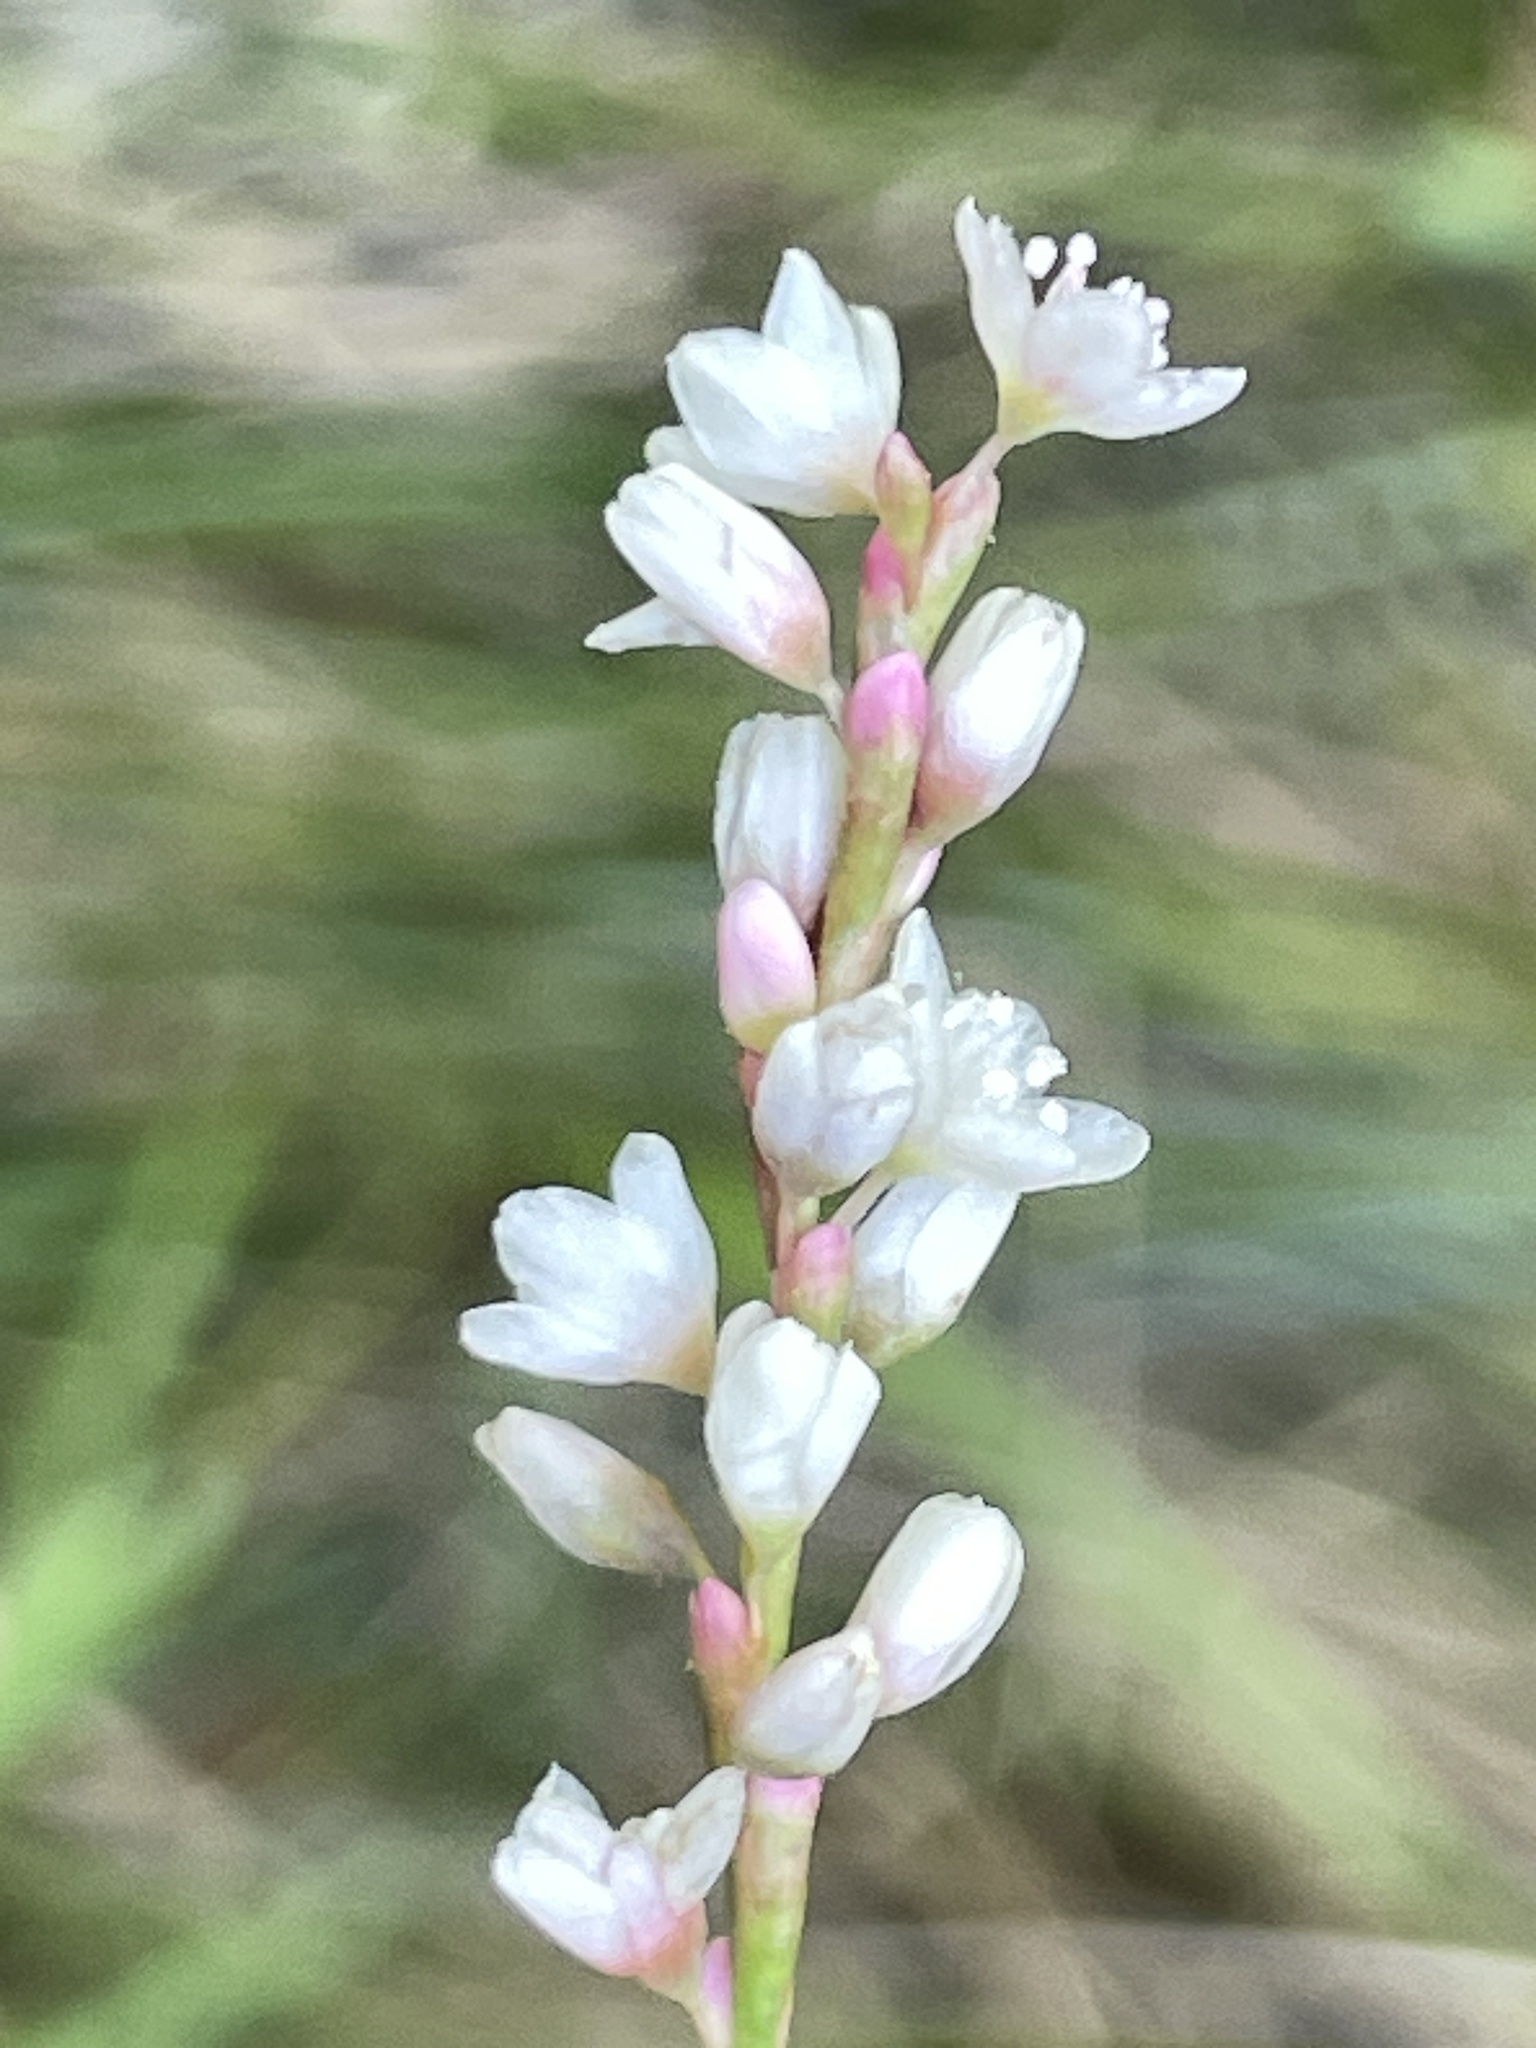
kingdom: Plantae
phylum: Tracheophyta
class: Magnoliopsida
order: Caryophyllales
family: Polygonaceae
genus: Persicaria
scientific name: Persicaria hydropiperoides
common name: Swamp smartweed
